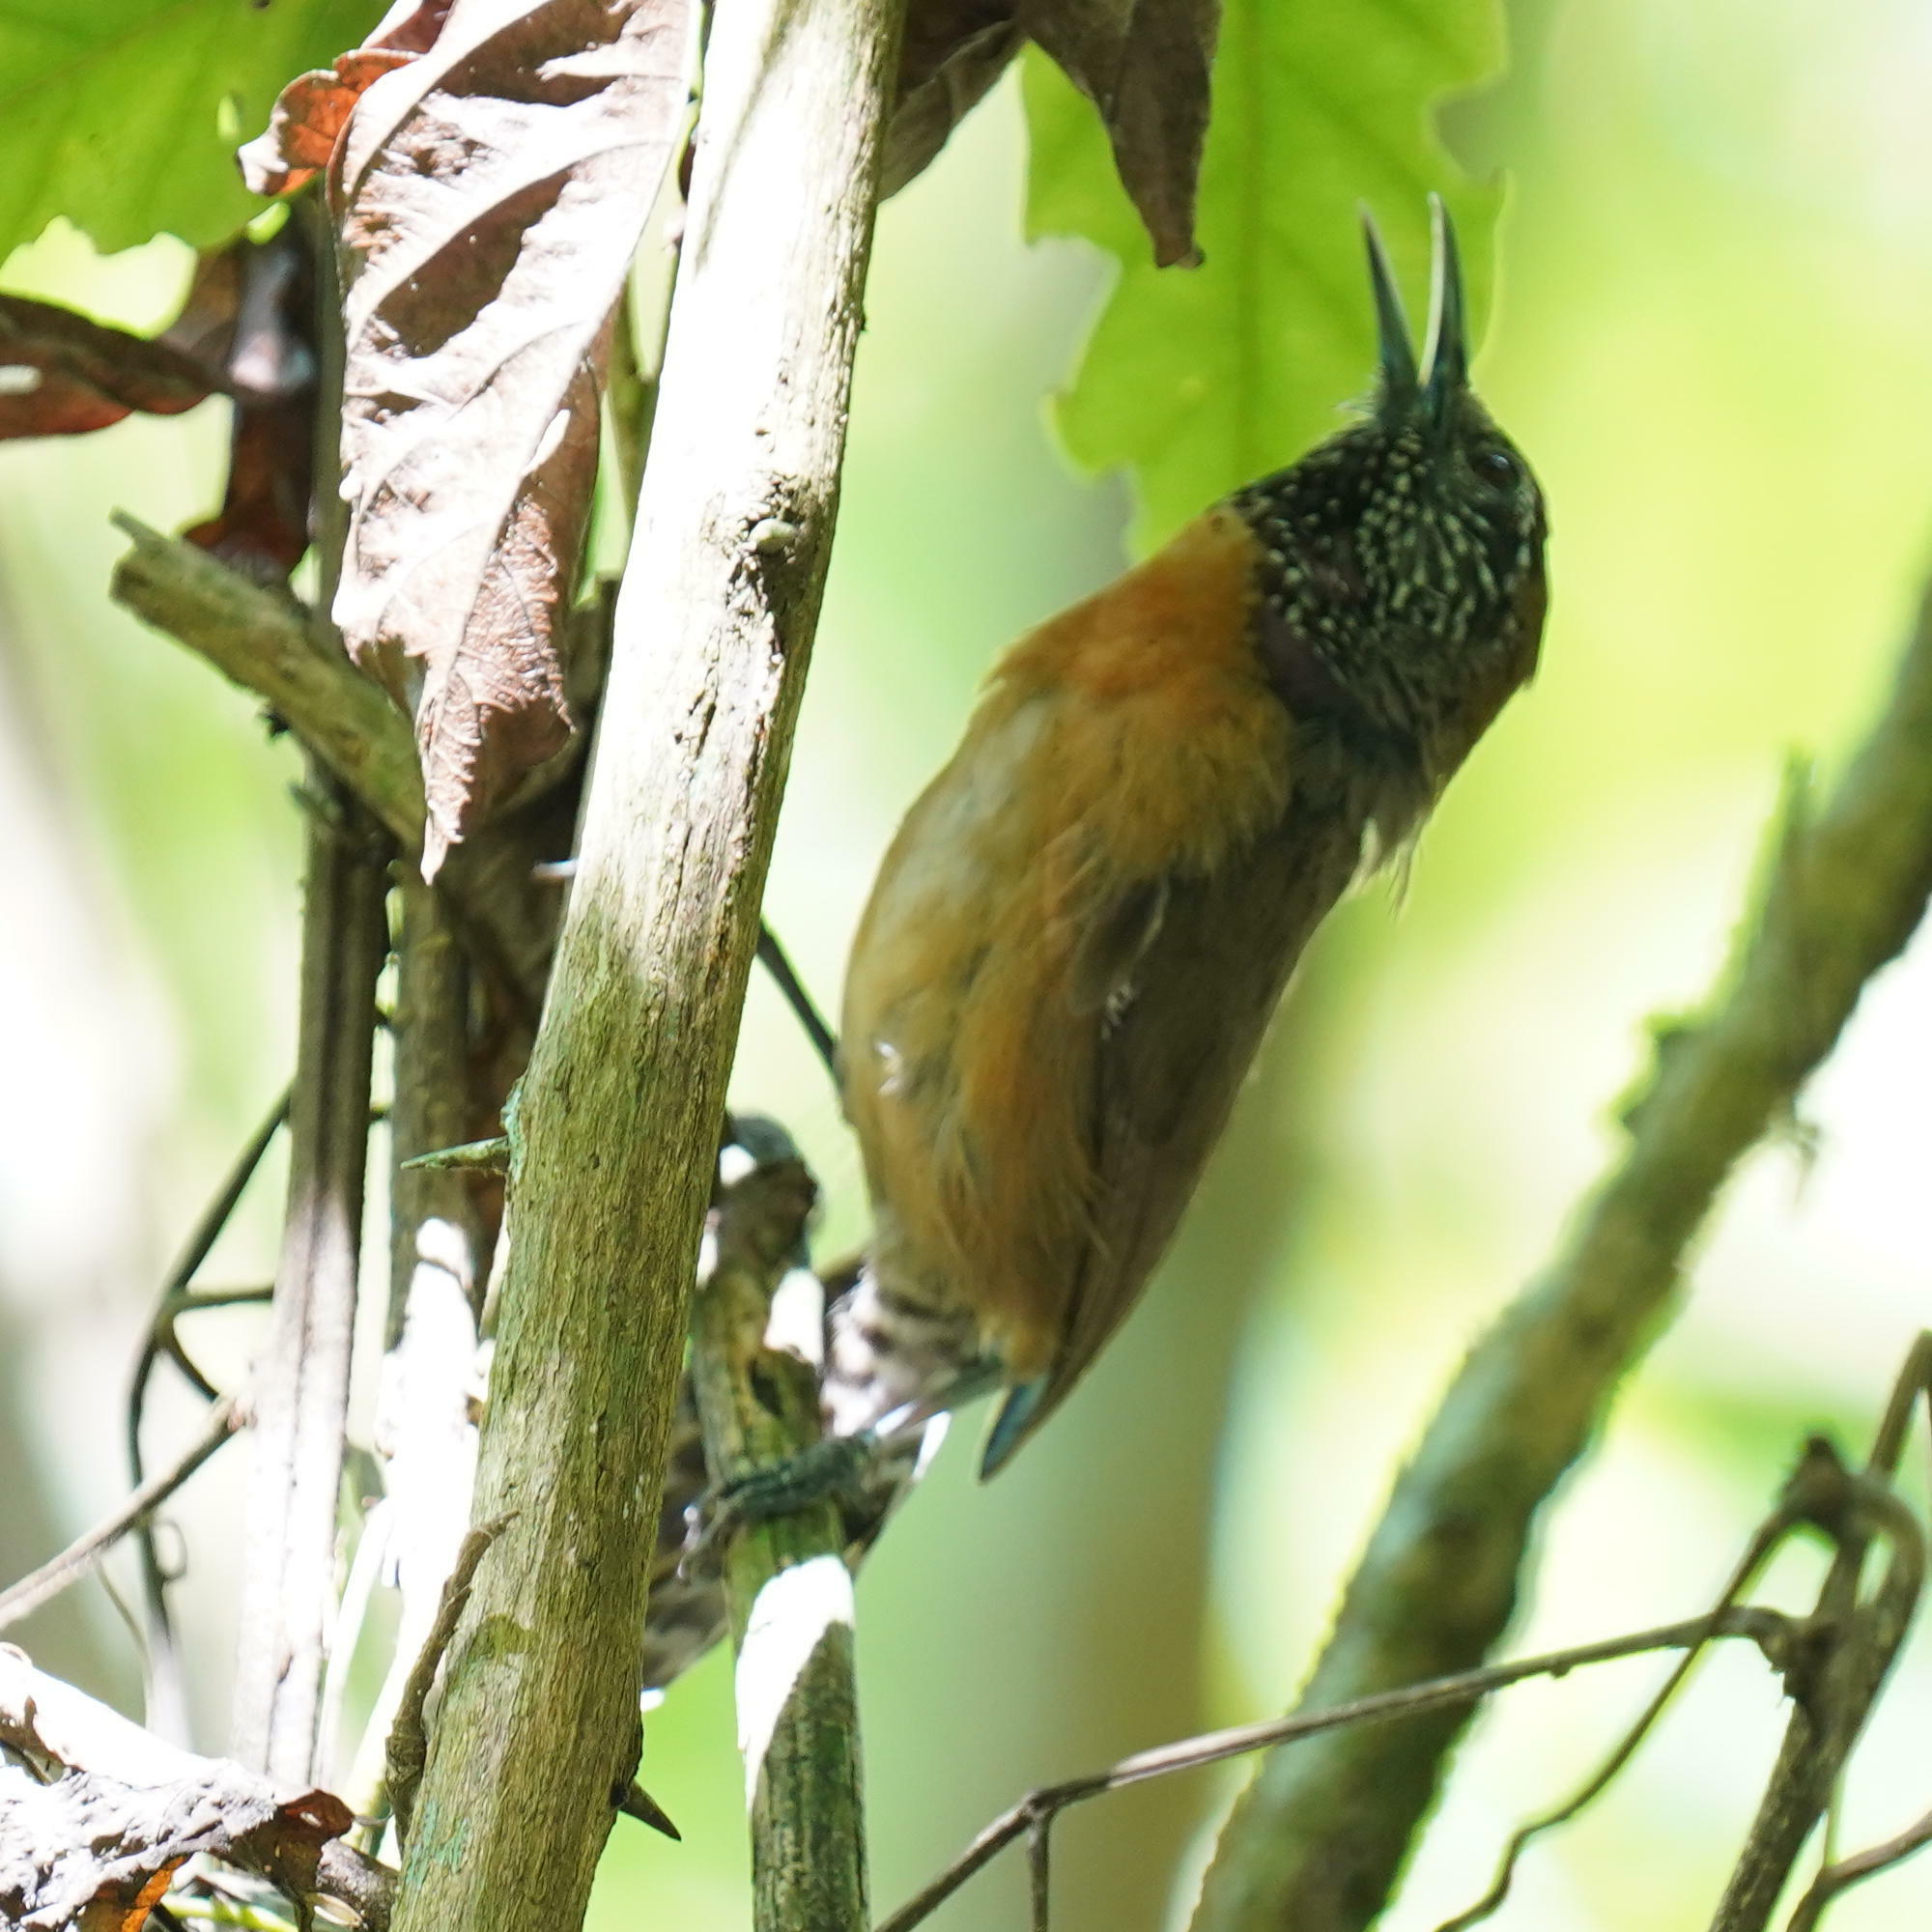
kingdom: Animalia
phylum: Chordata
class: Aves
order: Passeriformes
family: Troglodytidae
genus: Pheugopedius
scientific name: Pheugopedius rutilus
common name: Rufous-breasted wren
